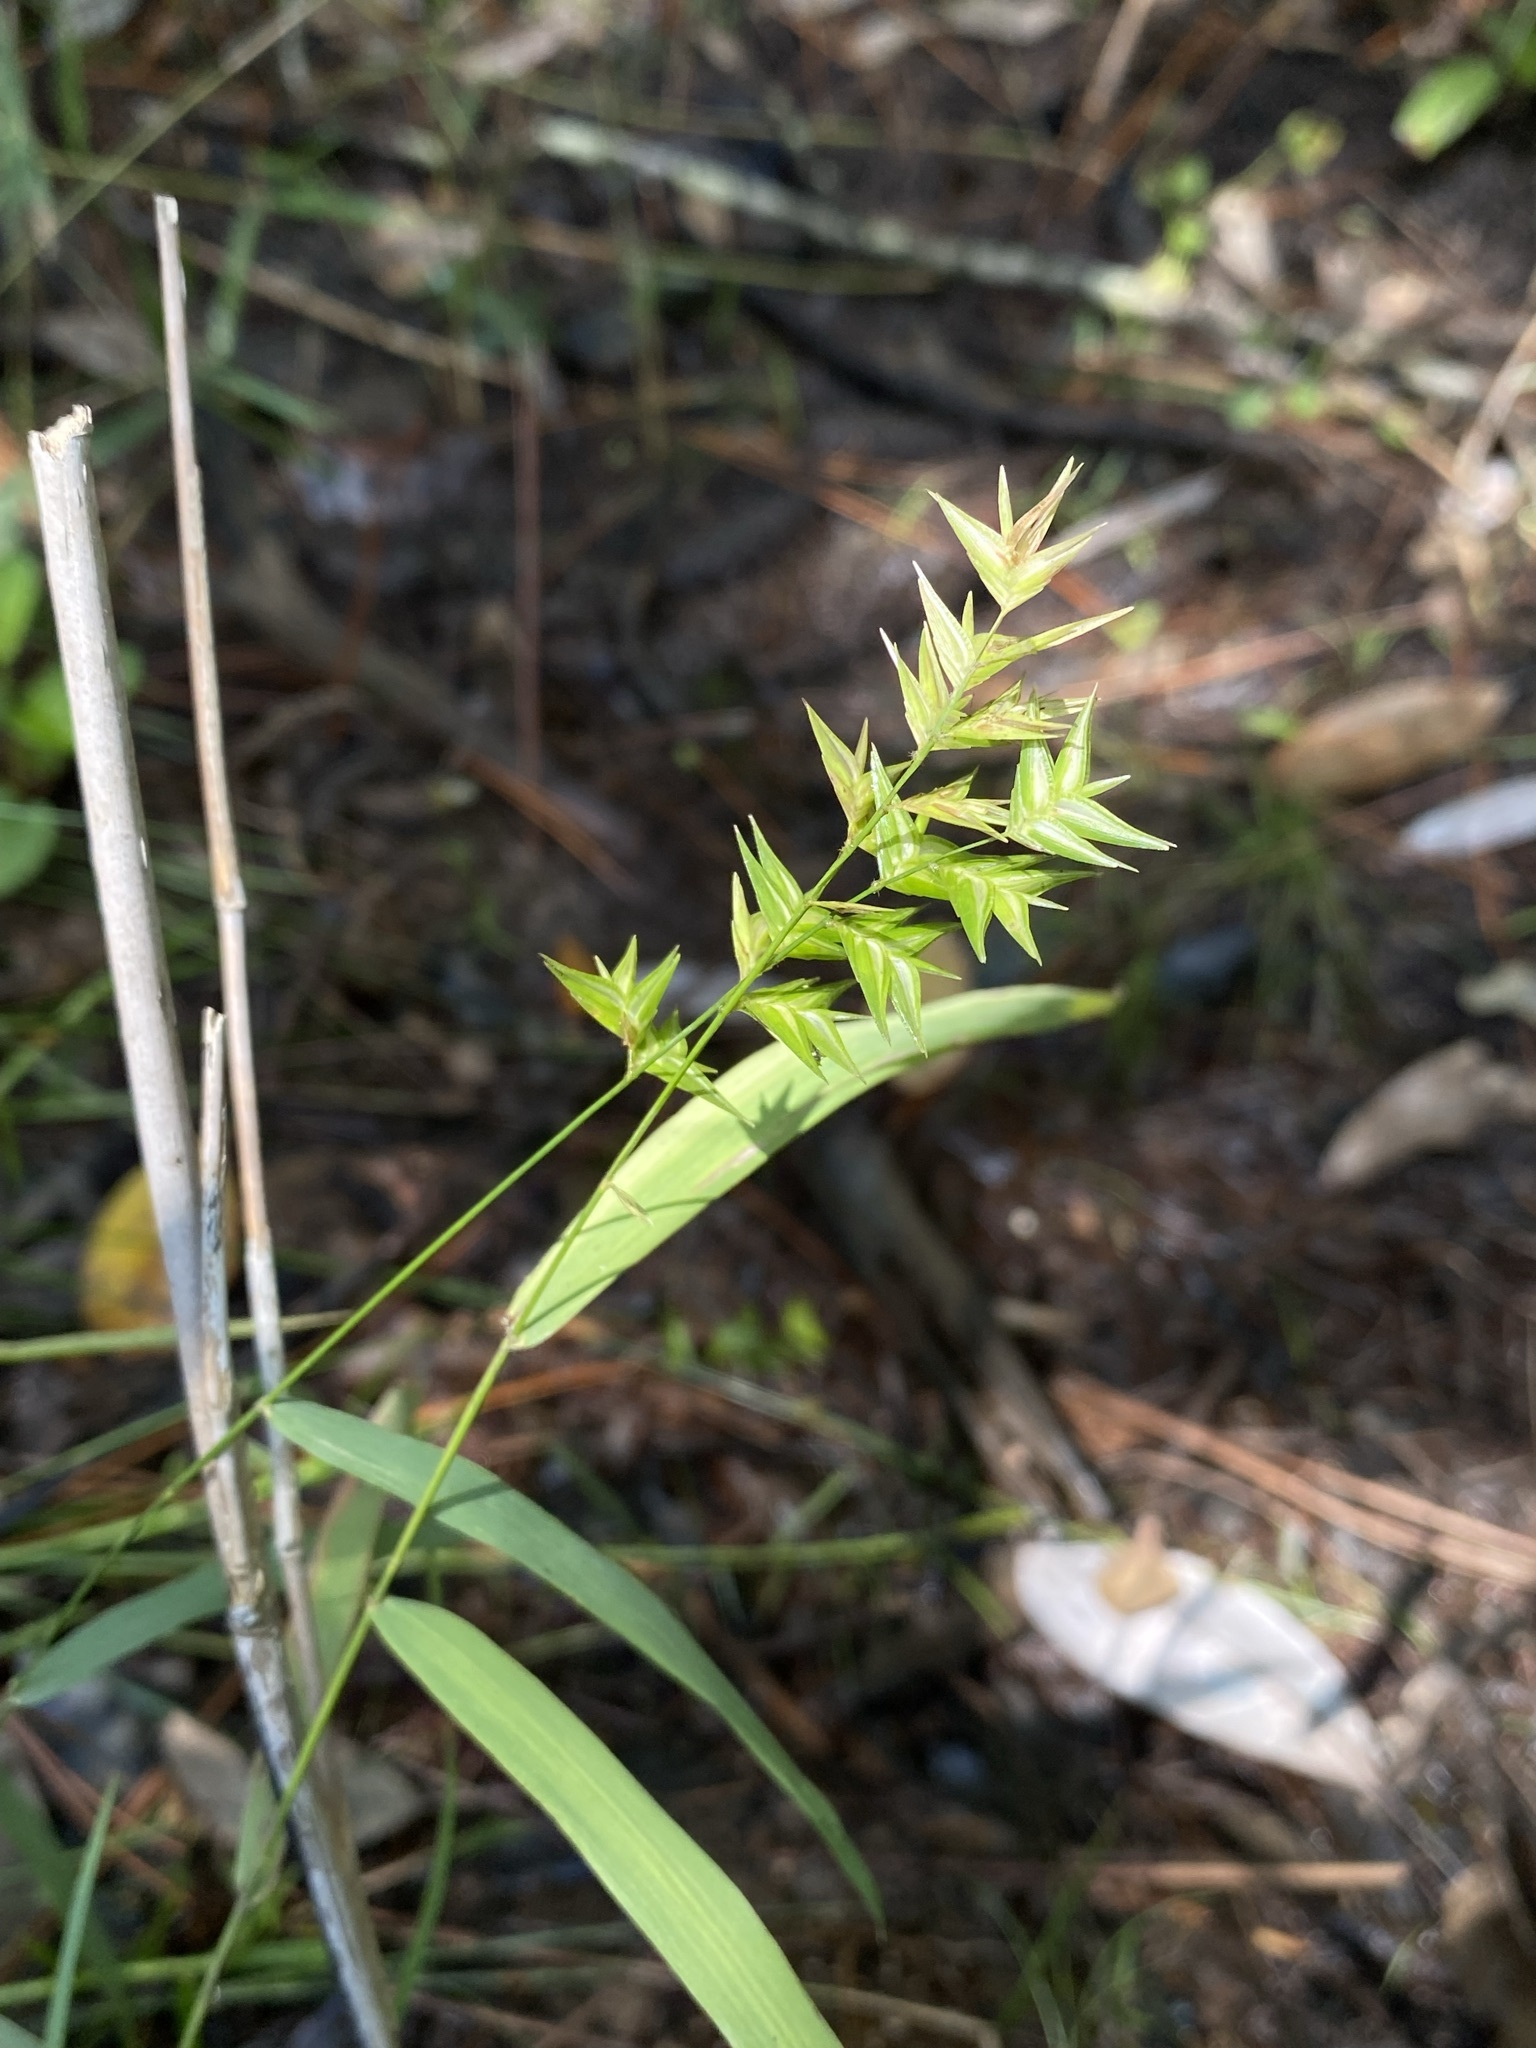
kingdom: Plantae
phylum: Tracheophyta
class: Liliopsida
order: Poales
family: Poaceae
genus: Chasmanthium
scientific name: Chasmanthium ornithorhynchum
